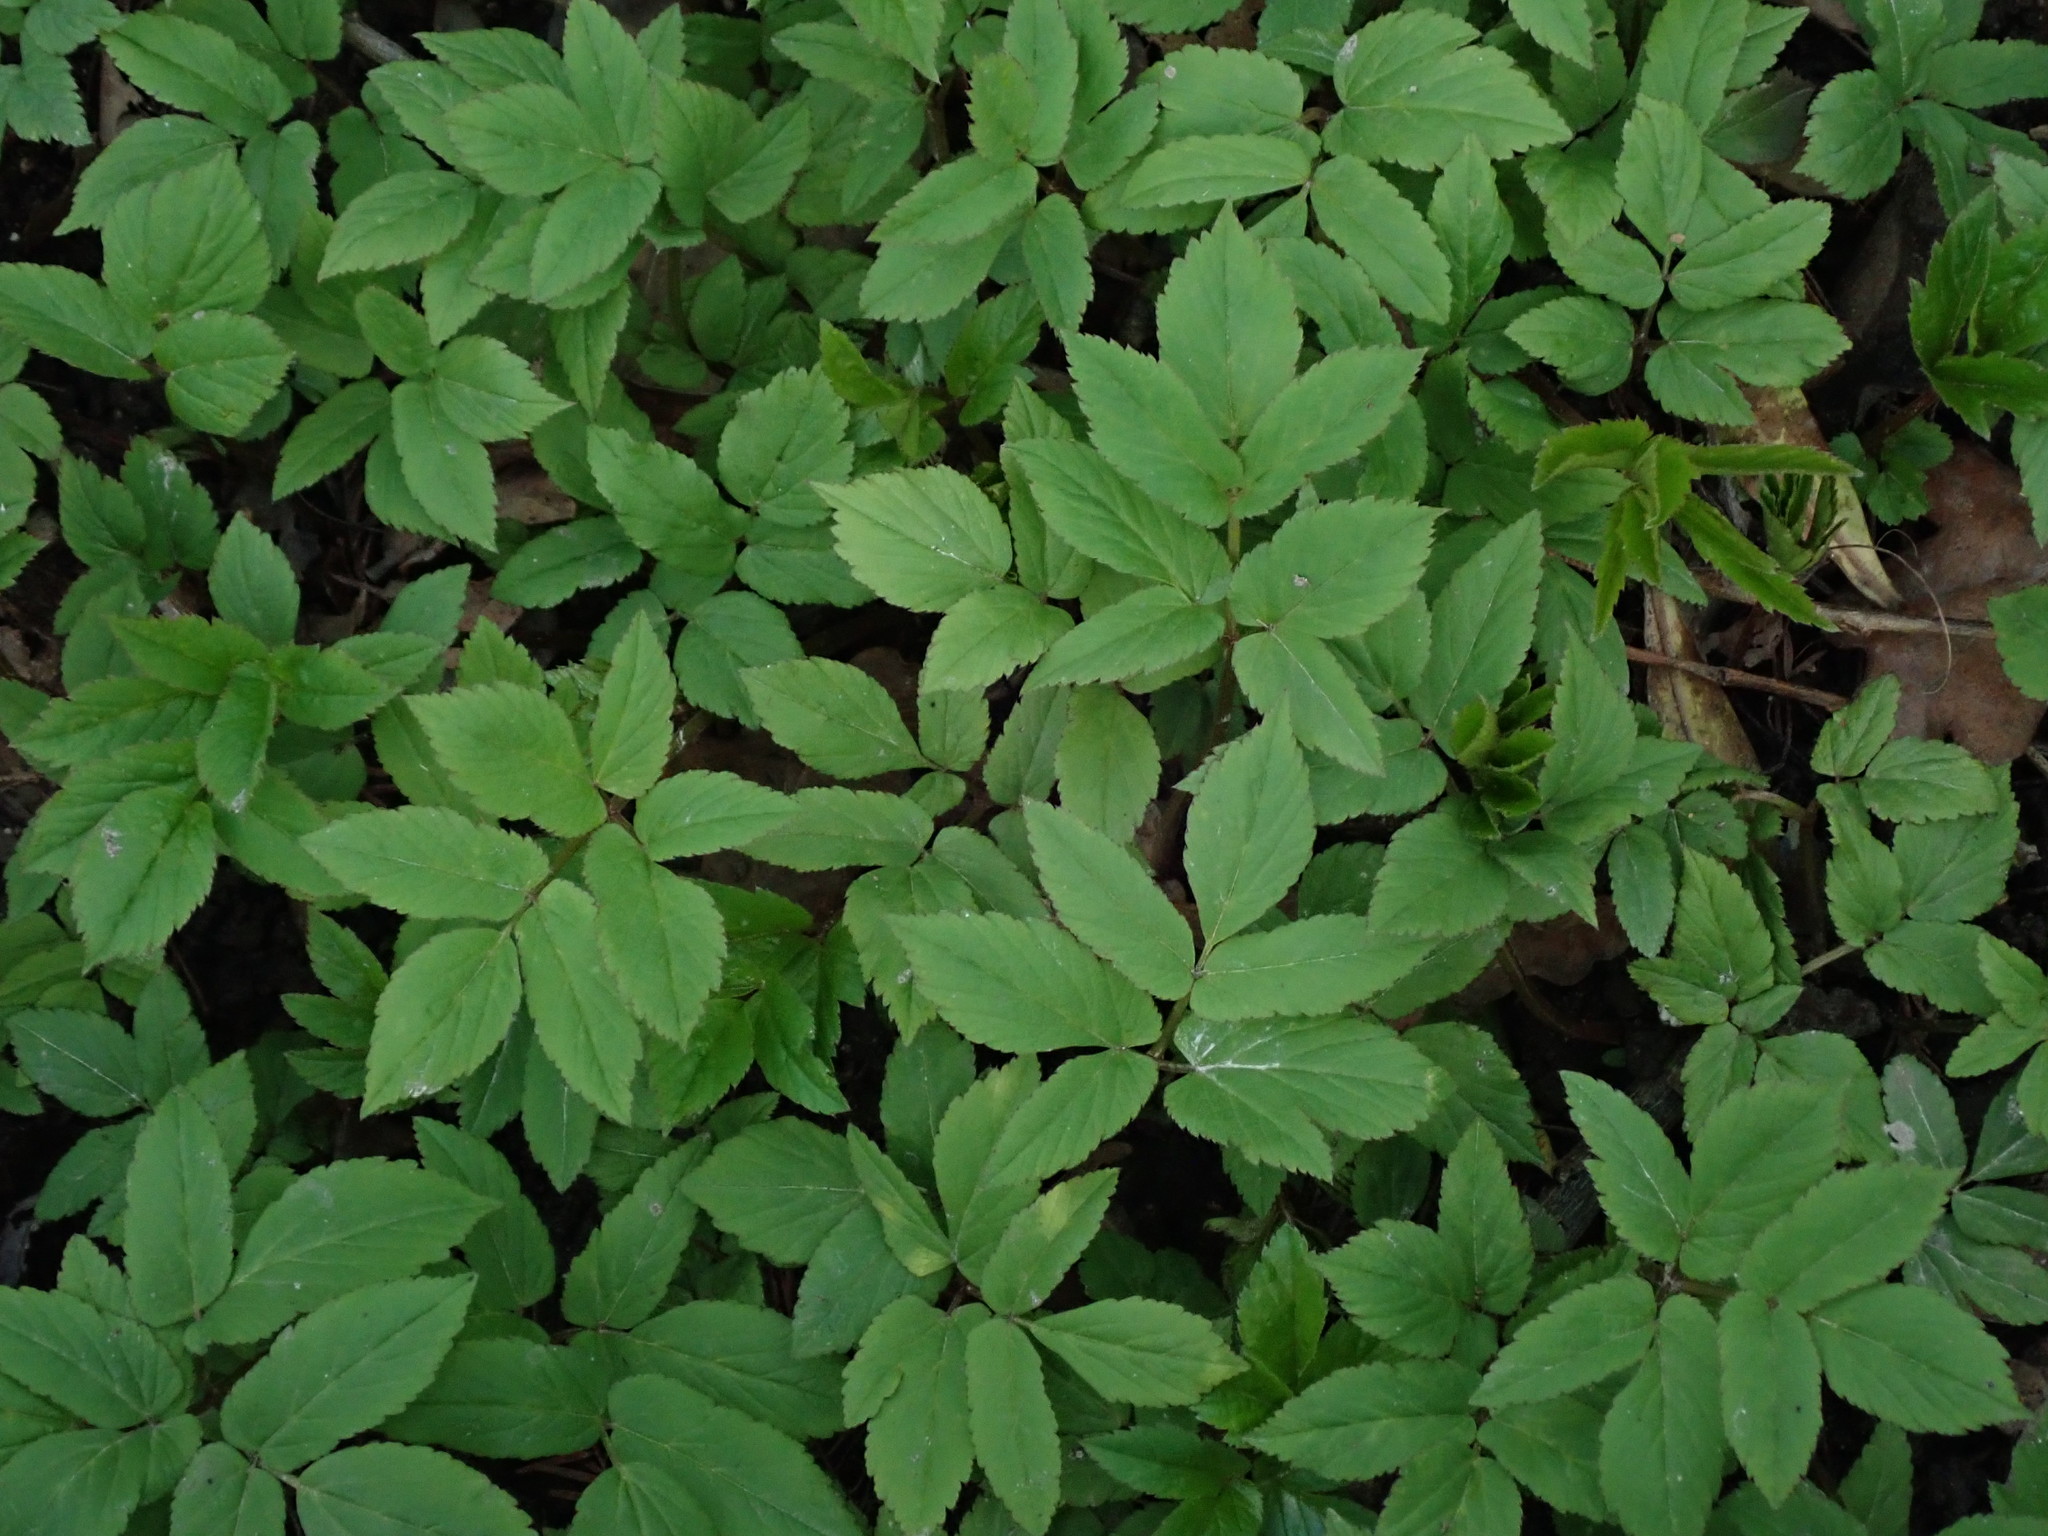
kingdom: Plantae
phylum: Tracheophyta
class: Magnoliopsida
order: Apiales
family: Apiaceae
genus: Aegopodium
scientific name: Aegopodium podagraria
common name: Ground-elder
